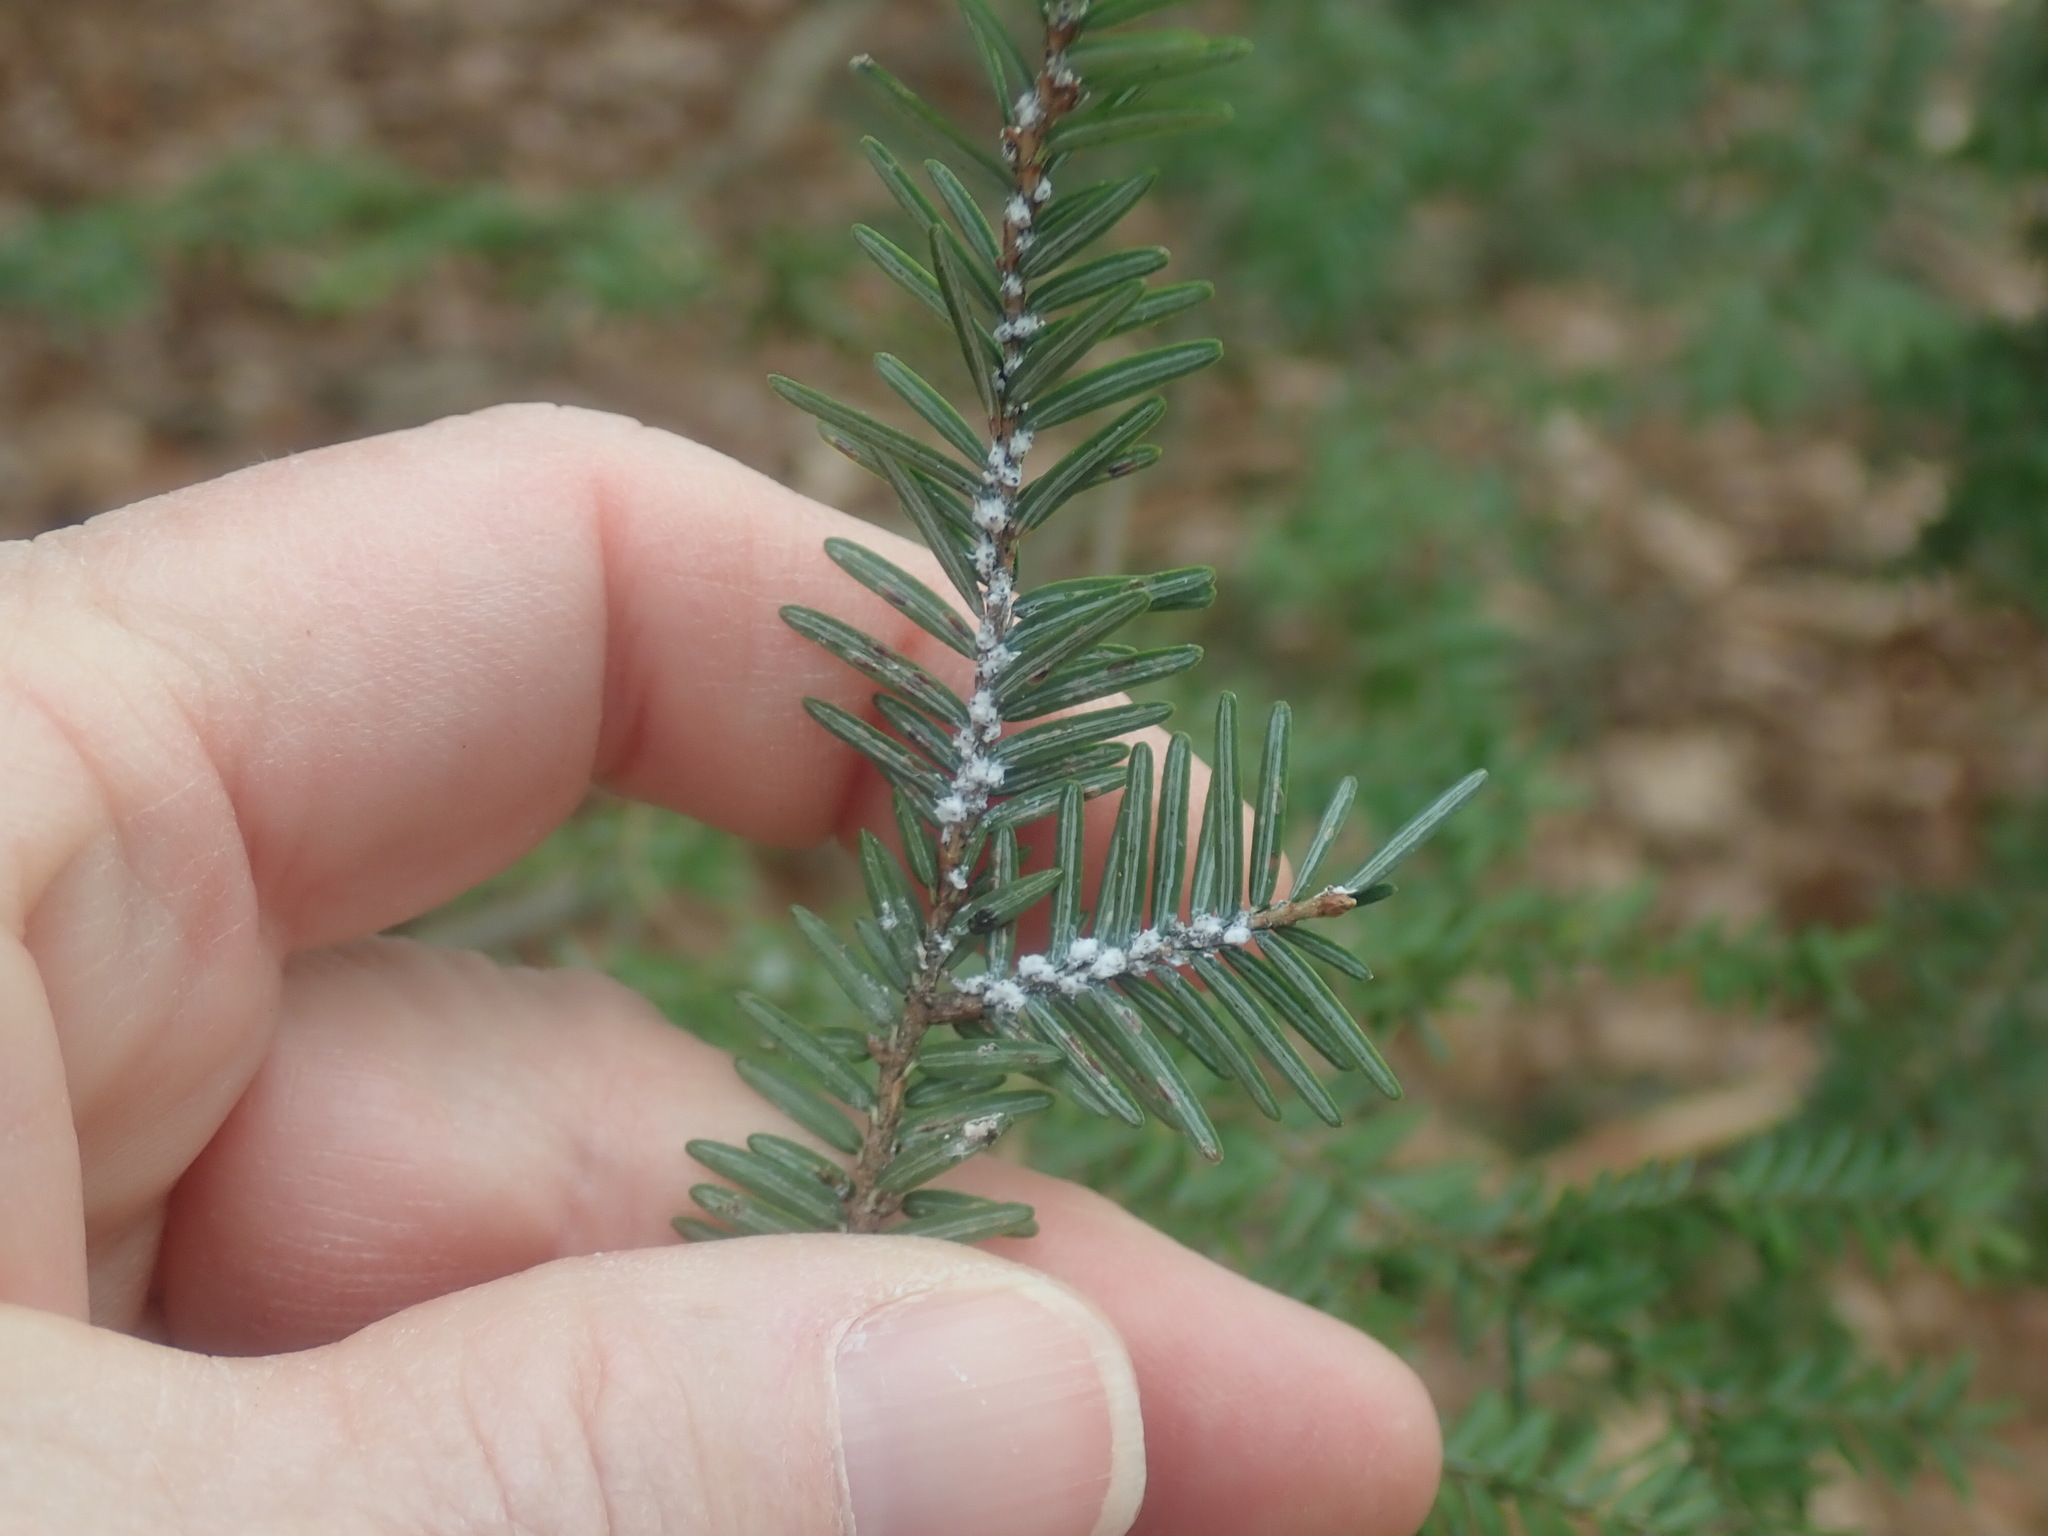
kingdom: Animalia
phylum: Arthropoda
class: Insecta
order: Hemiptera
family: Adelgidae
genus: Adelges
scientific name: Adelges tsugae
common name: Hemlock woolly adelgid
